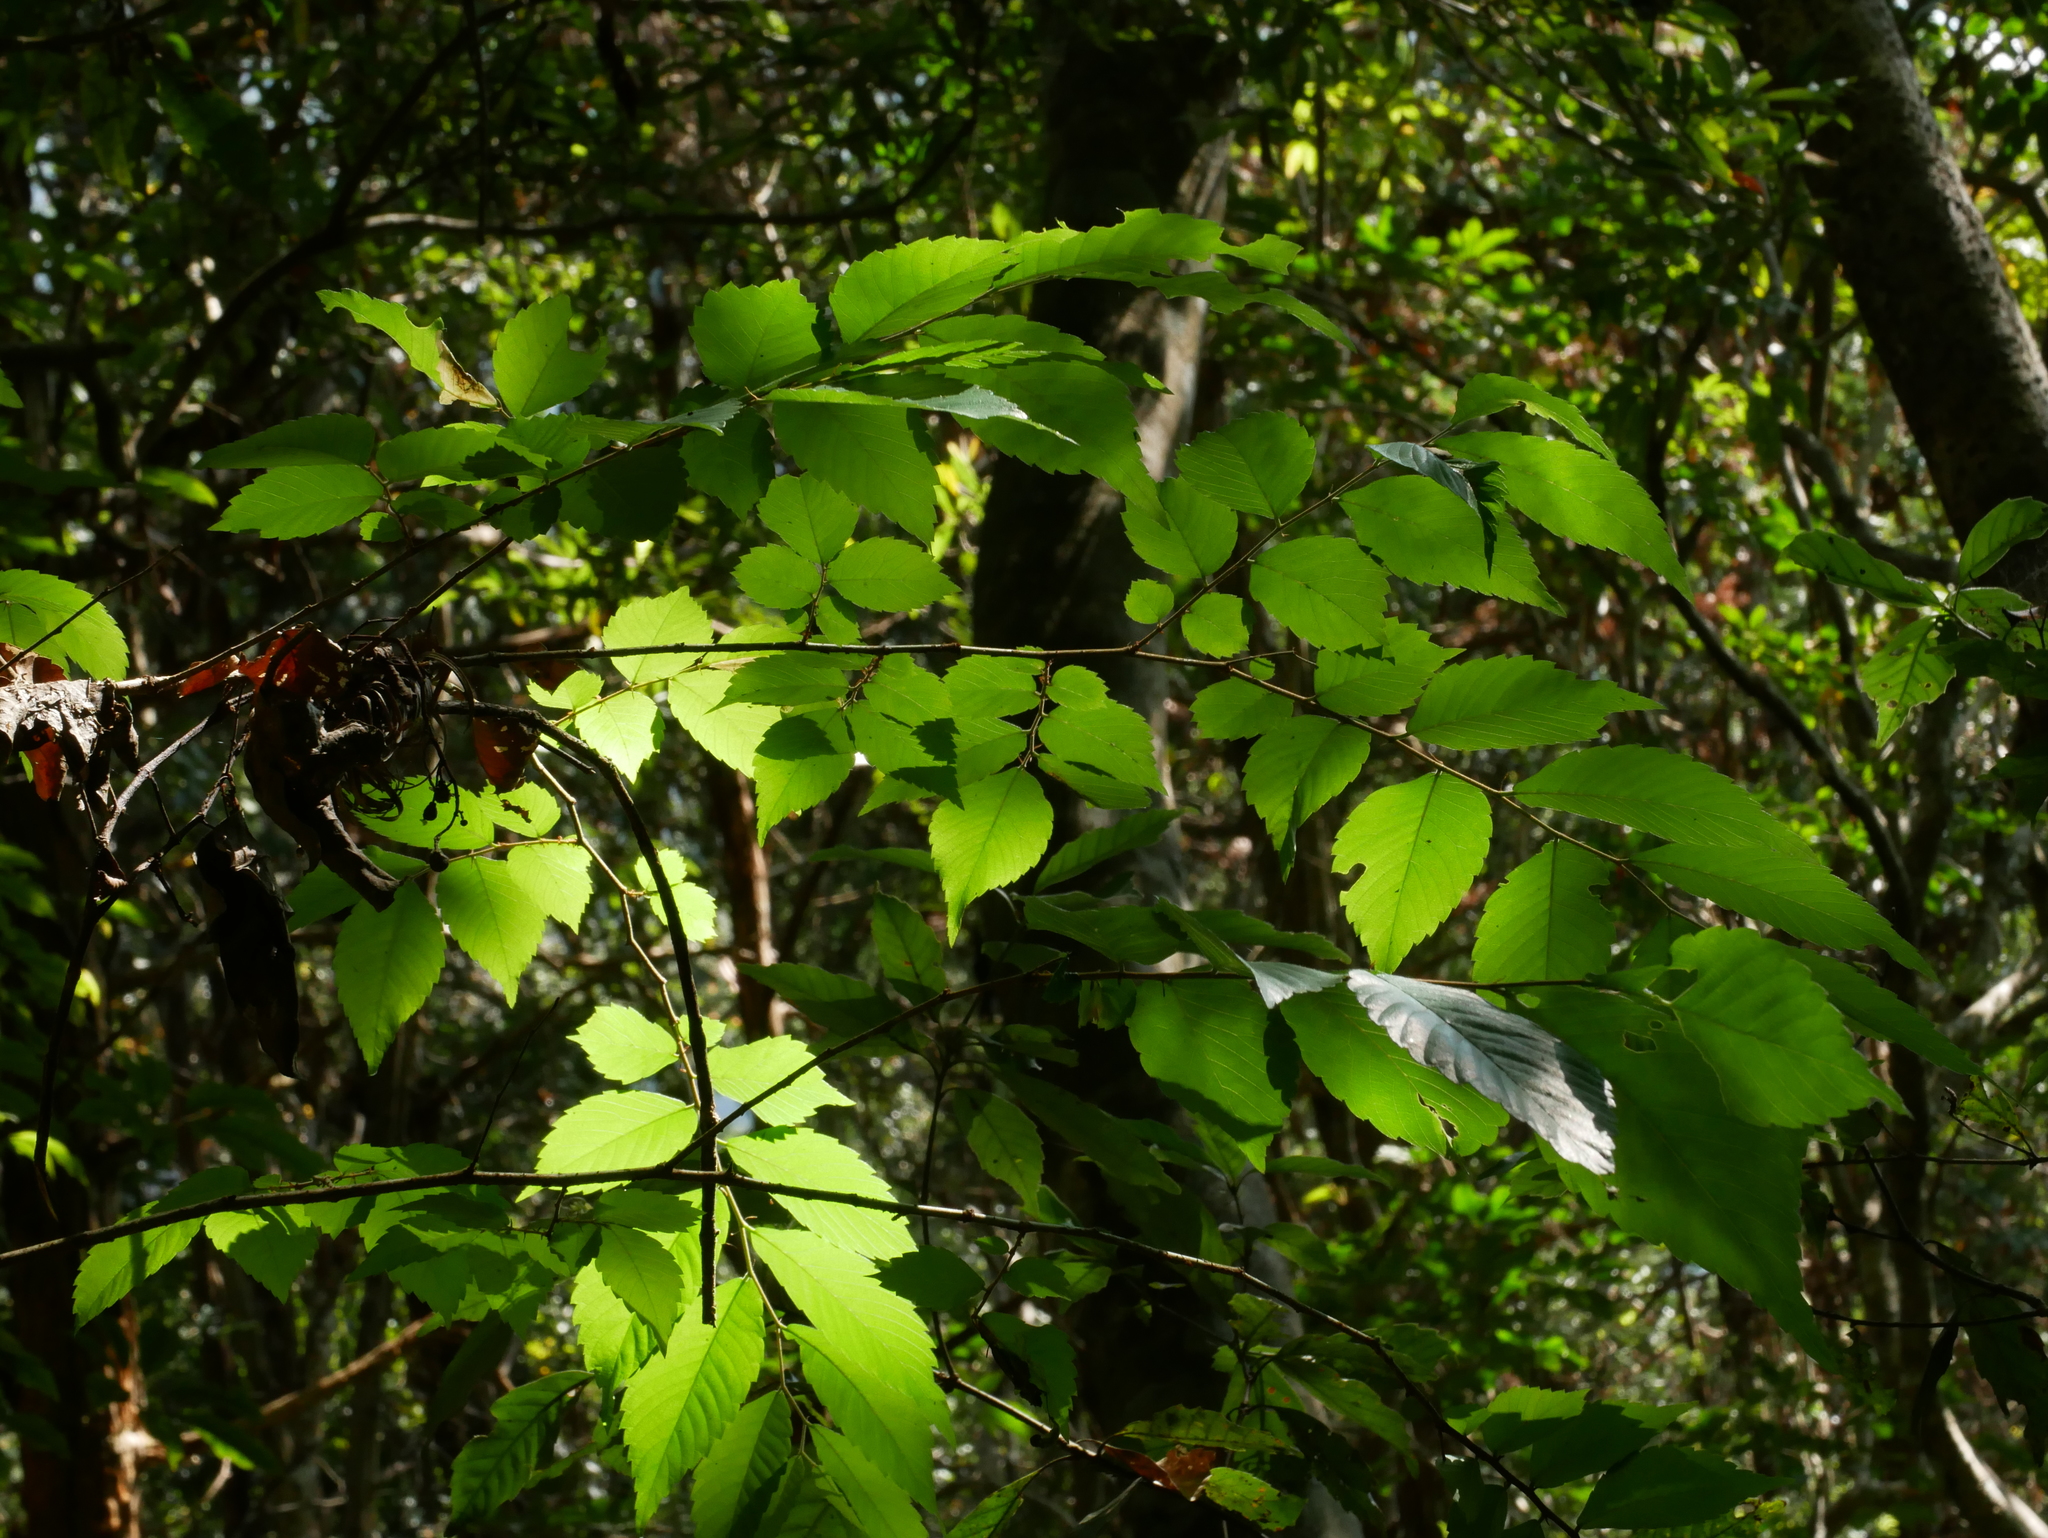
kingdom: Plantae
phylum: Tracheophyta
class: Magnoliopsida
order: Rosales
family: Ulmaceae
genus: Zelkova
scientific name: Zelkova serrata
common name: Japanese zelkova
